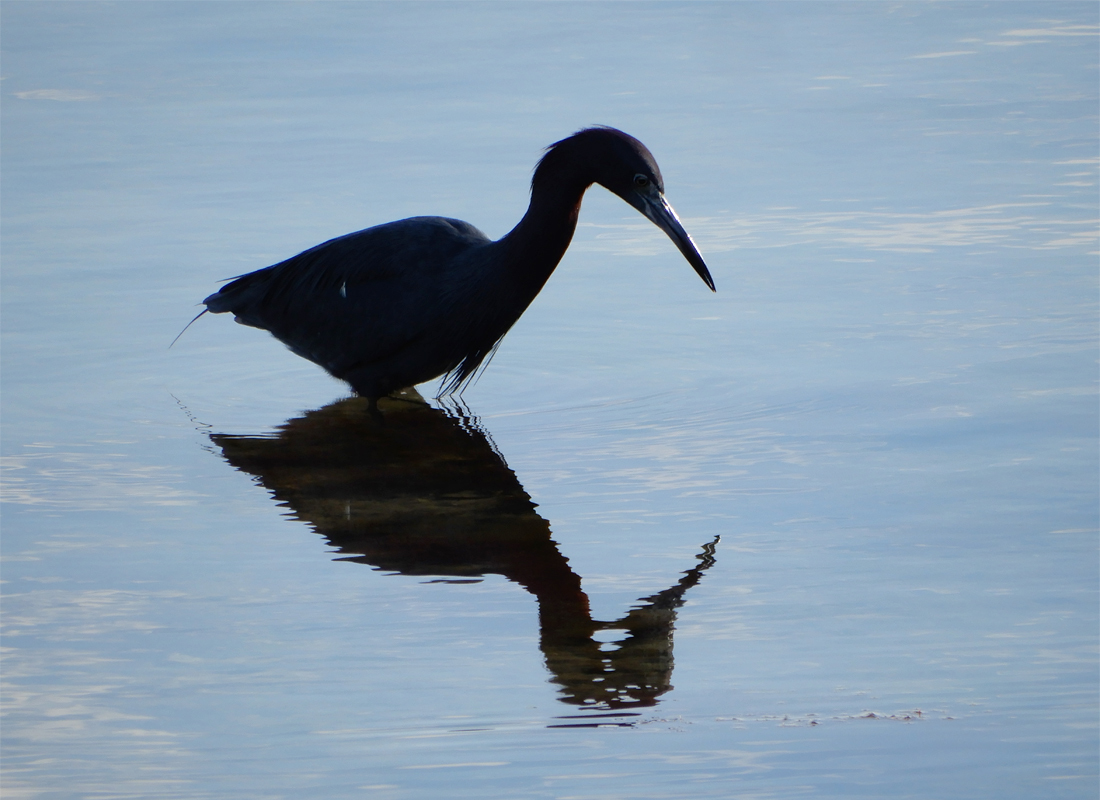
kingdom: Animalia
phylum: Chordata
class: Aves
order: Pelecaniformes
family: Ardeidae
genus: Egretta
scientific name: Egretta caerulea
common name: Little blue heron
